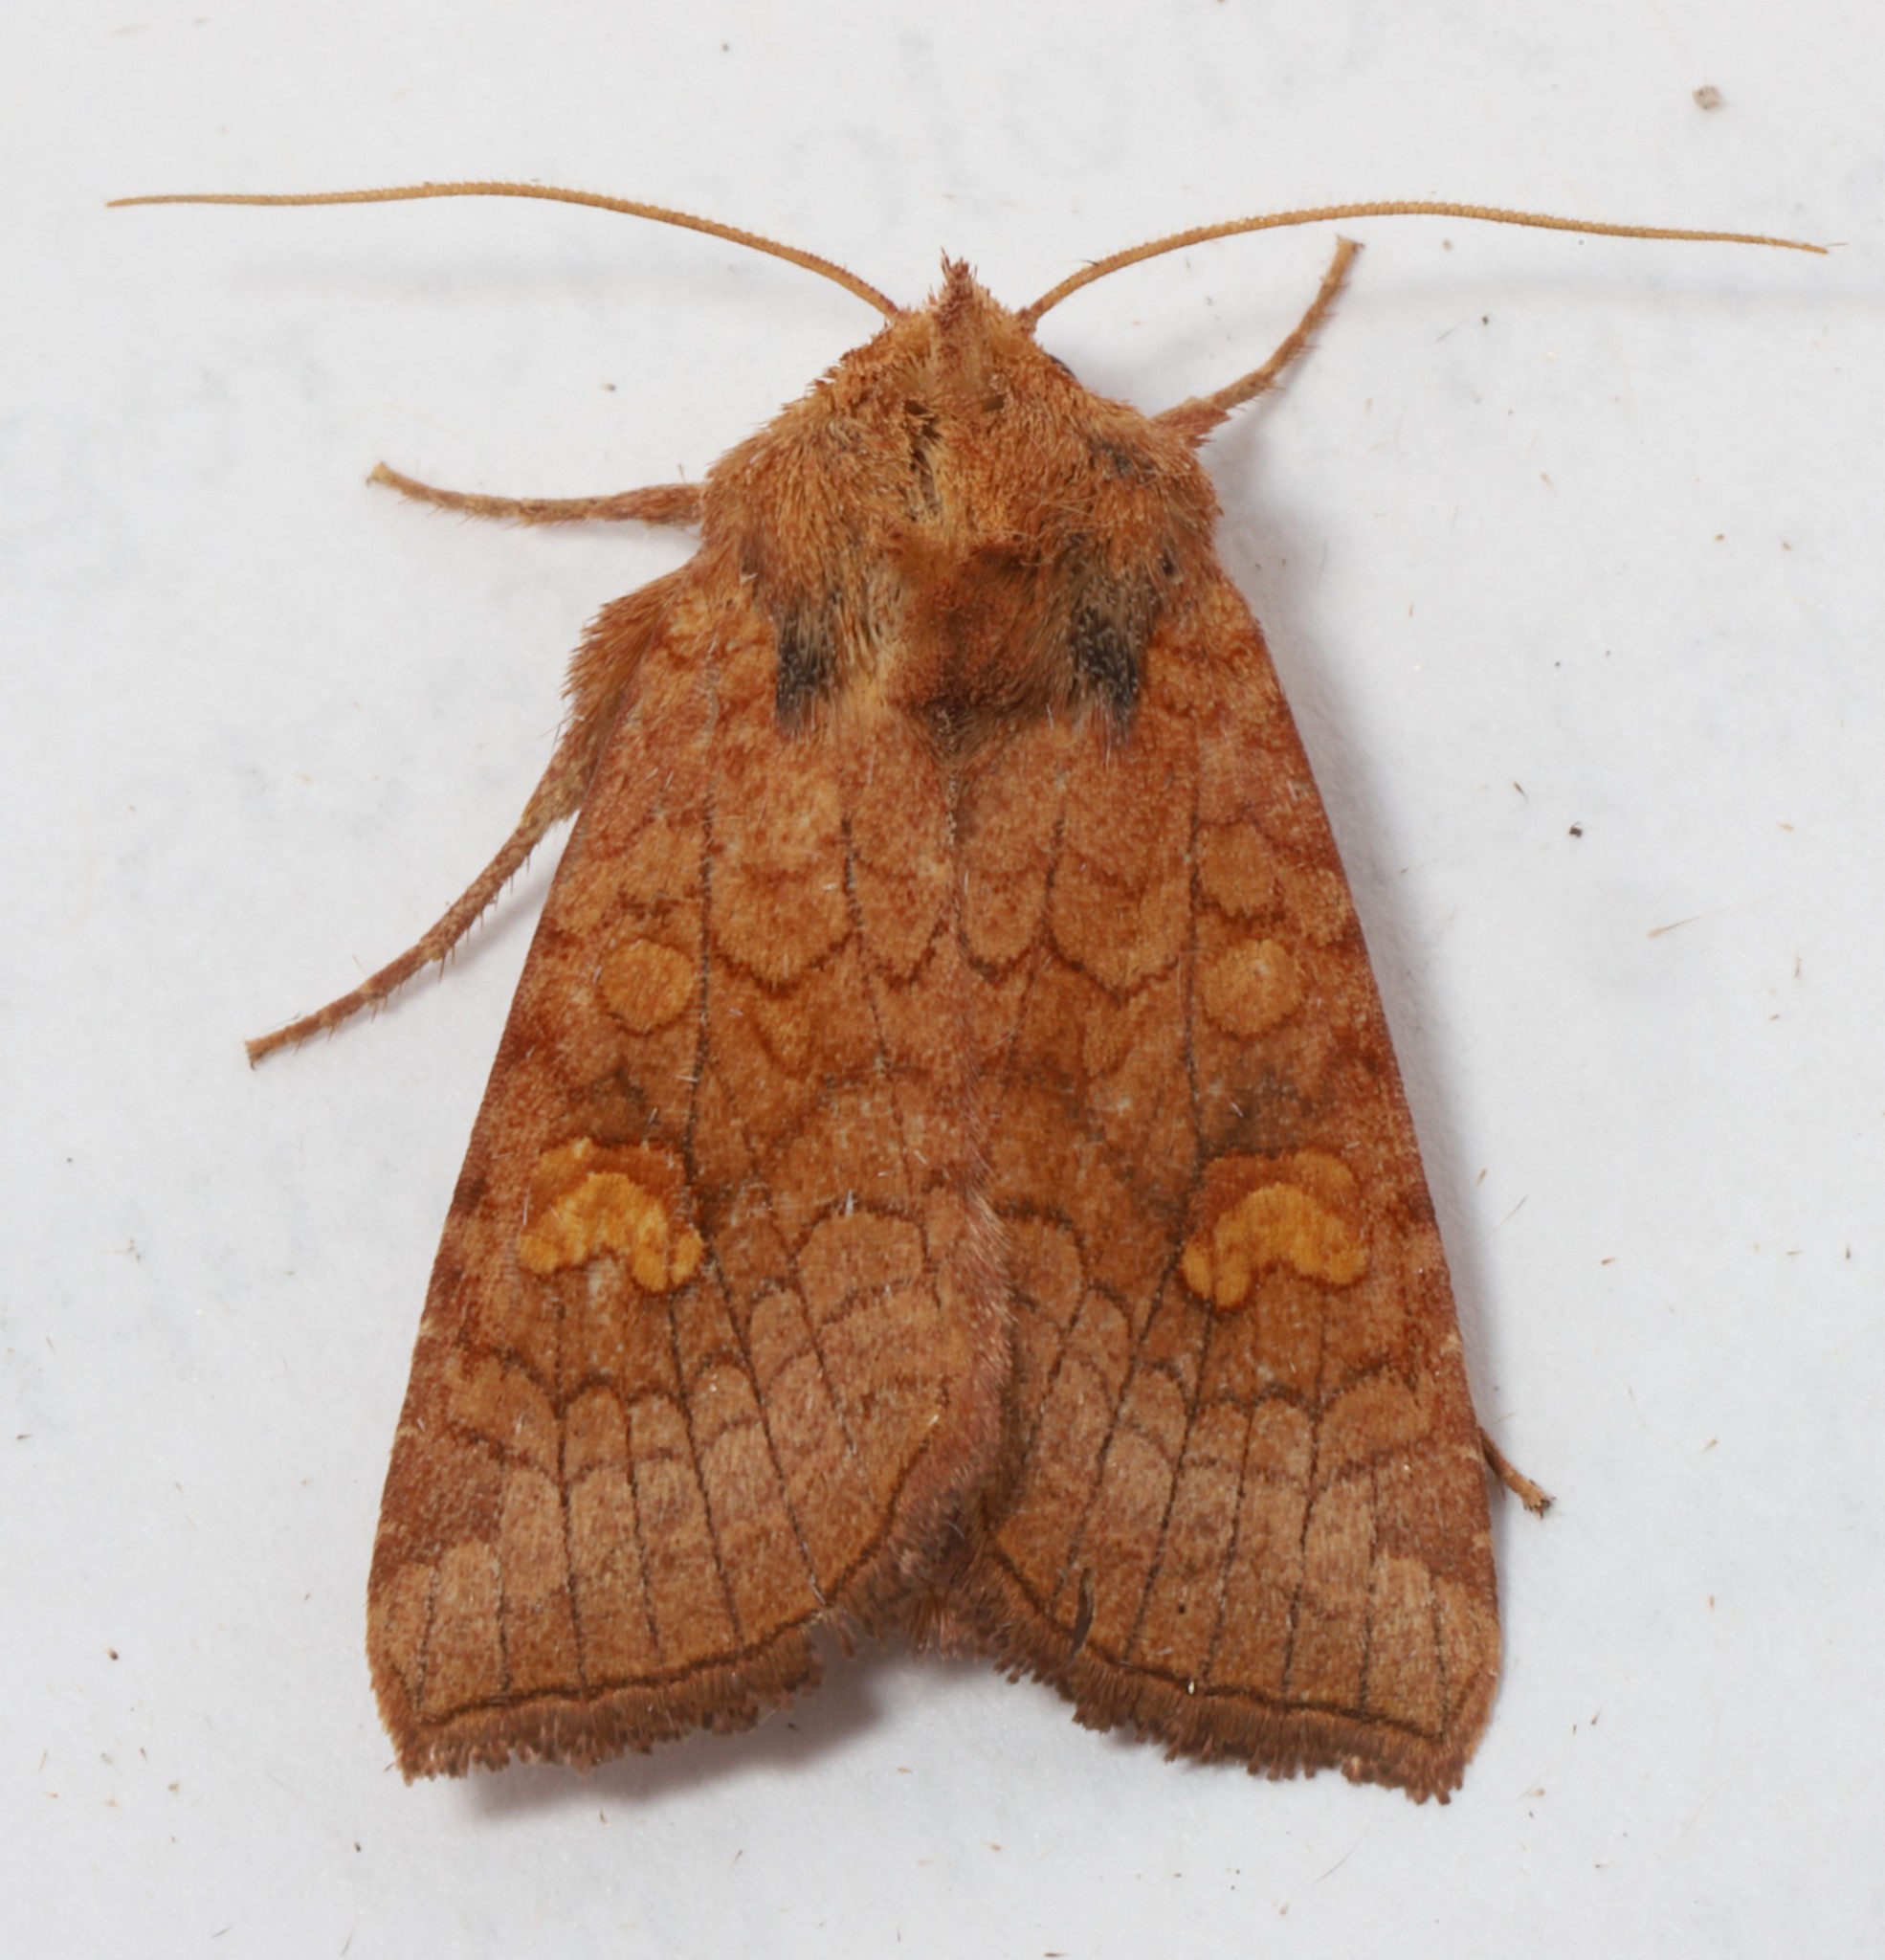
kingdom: Animalia
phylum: Arthropoda
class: Insecta
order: Lepidoptera
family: Noctuidae
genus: Amphipoea
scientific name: Amphipoea americana
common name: American ear moth
